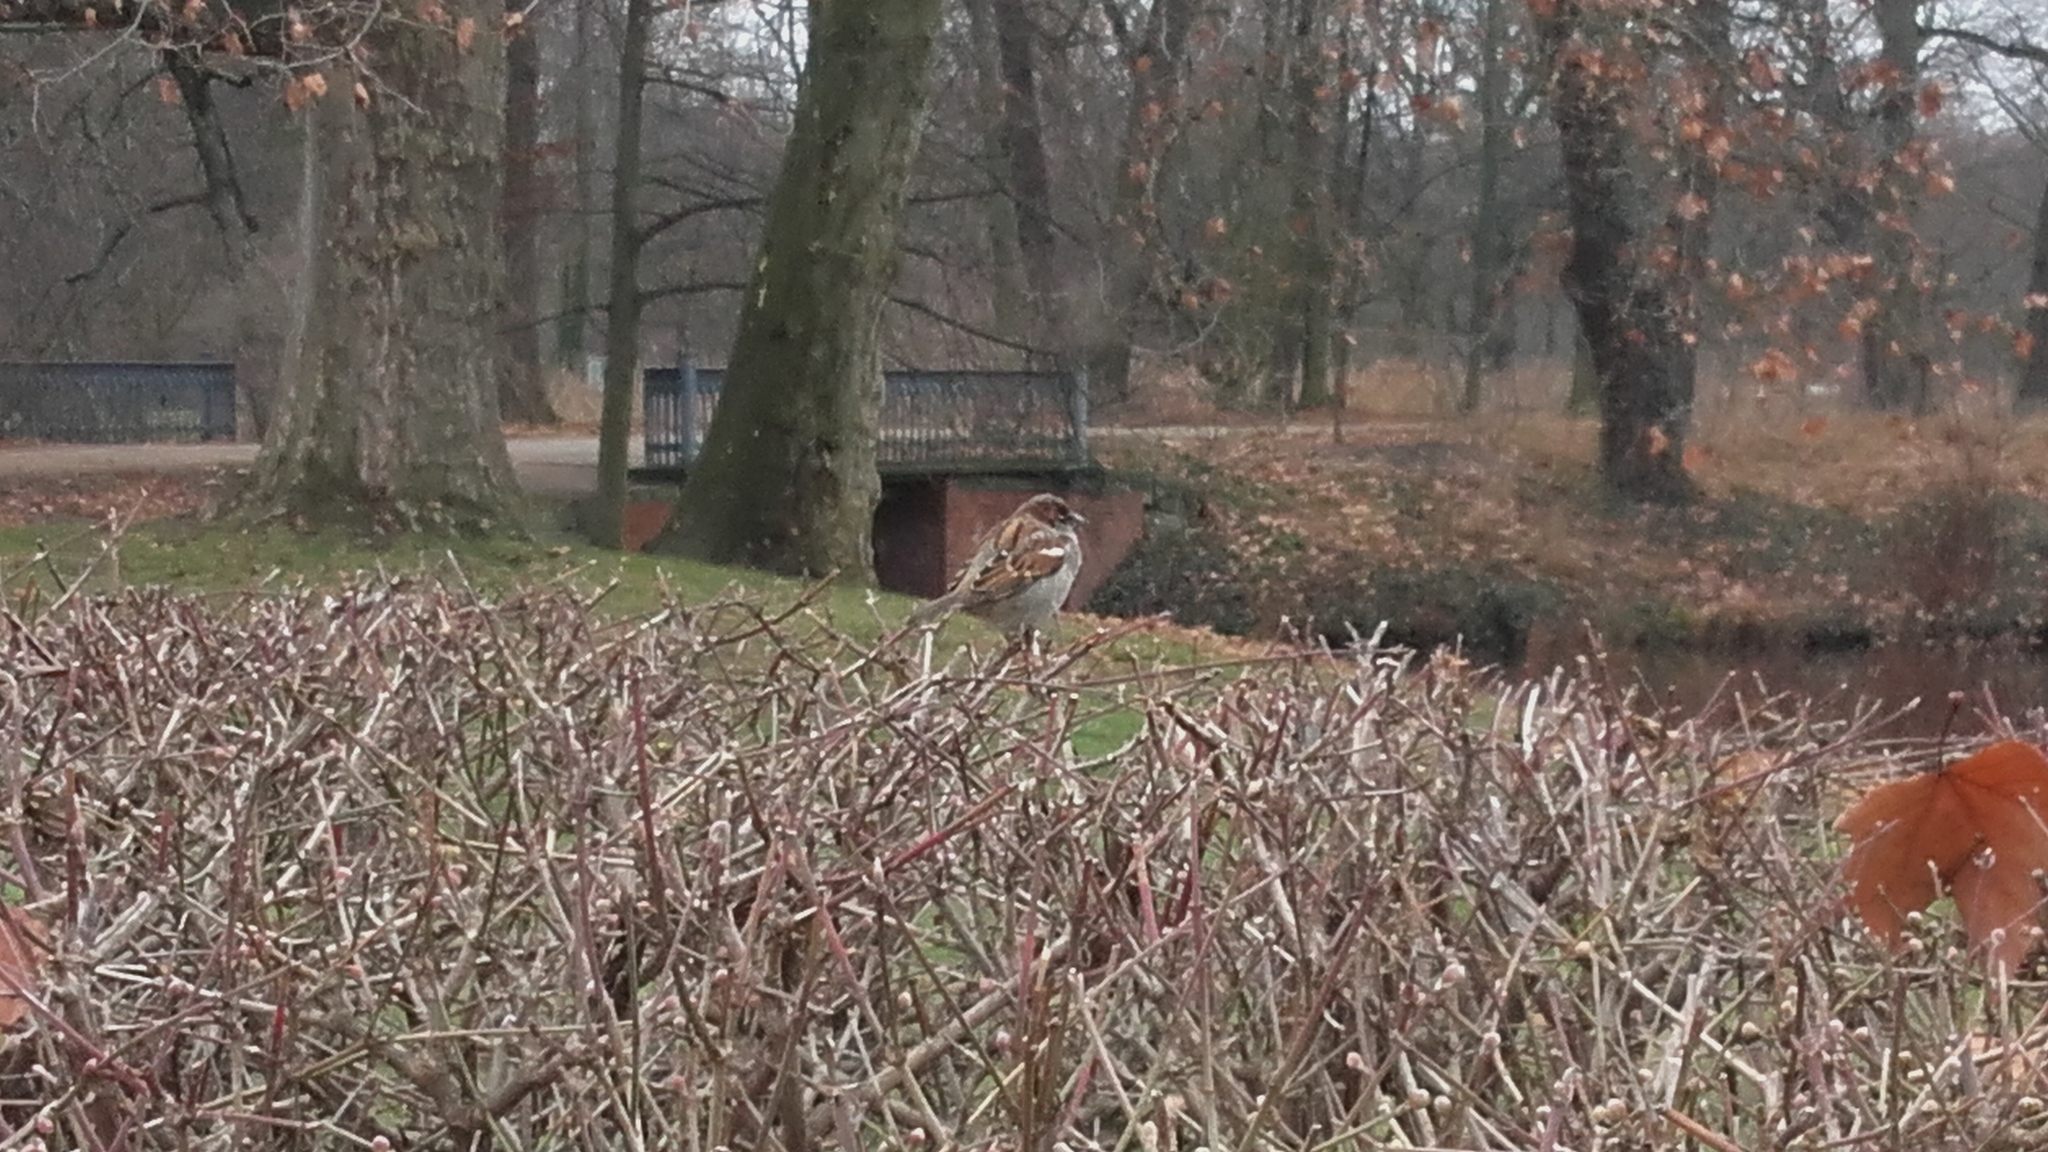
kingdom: Animalia
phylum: Chordata
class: Aves
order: Passeriformes
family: Passeridae
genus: Passer
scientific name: Passer domesticus
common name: House sparrow
